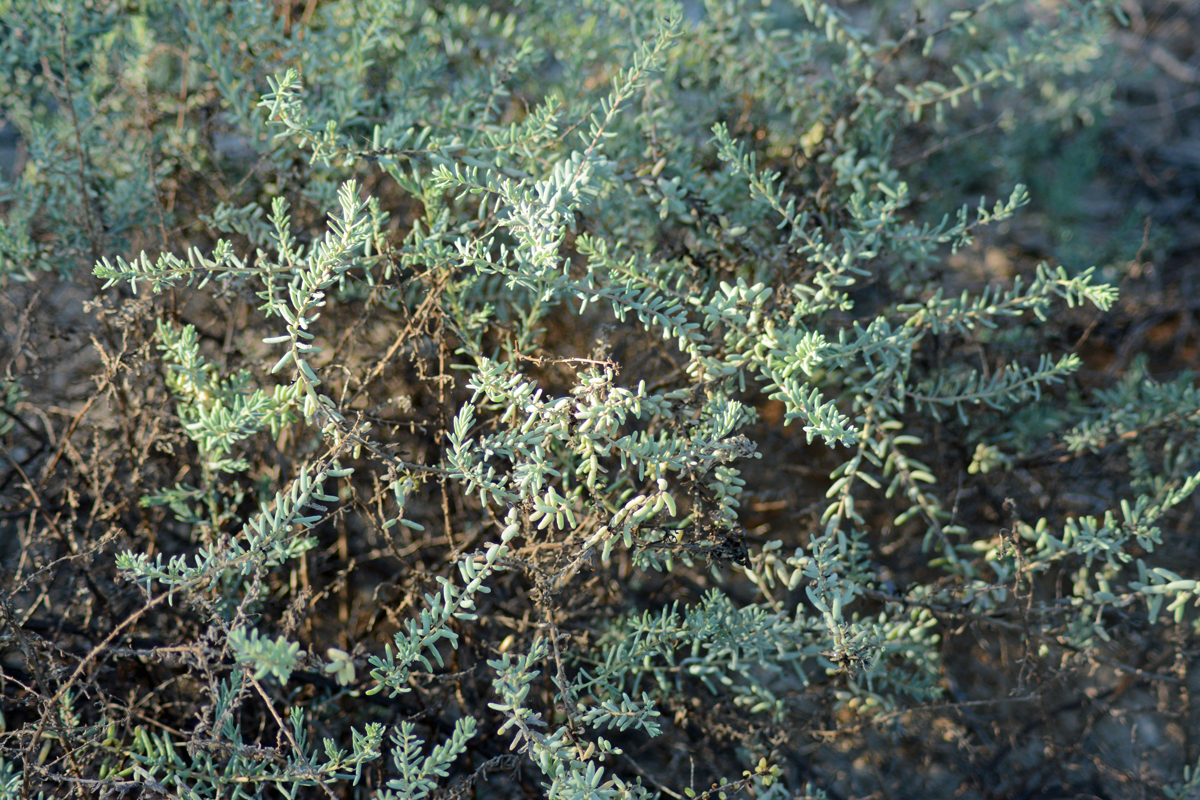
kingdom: Plantae
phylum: Tracheophyta
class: Magnoliopsida
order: Caryophyllales
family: Amaranthaceae
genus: Suaeda
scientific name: Suaeda nigra
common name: Bush seepweed
